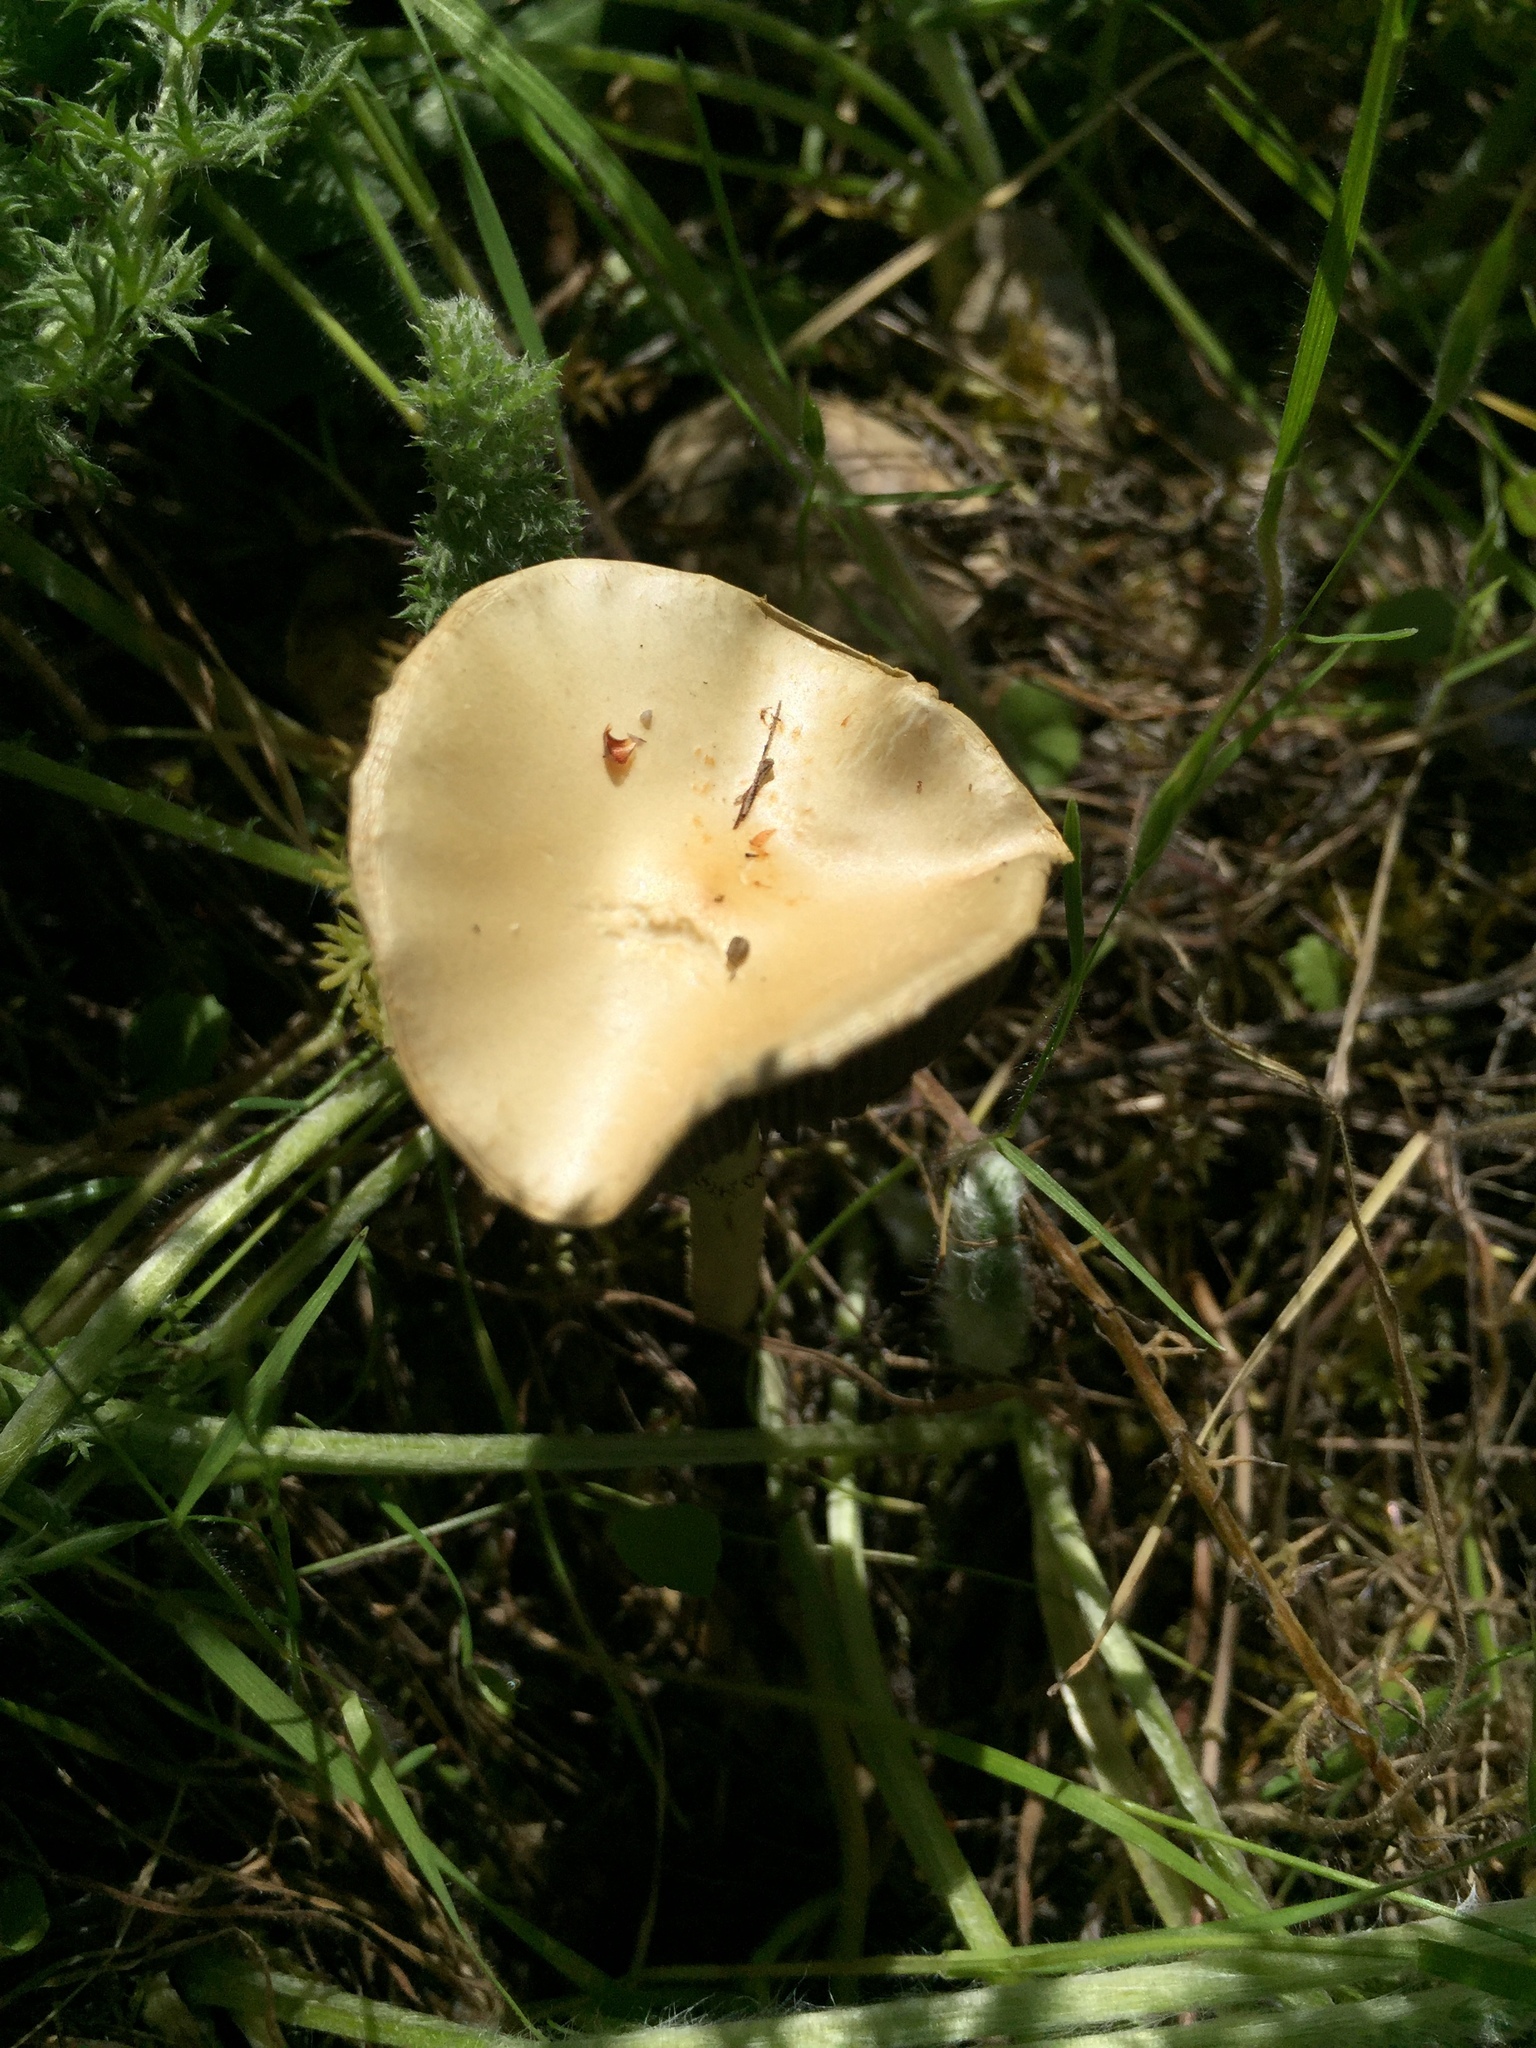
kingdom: Fungi
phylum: Basidiomycota
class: Agaricomycetes
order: Agaricales
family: Strophariaceae
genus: Leratiomyces
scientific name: Leratiomyces percevalii
